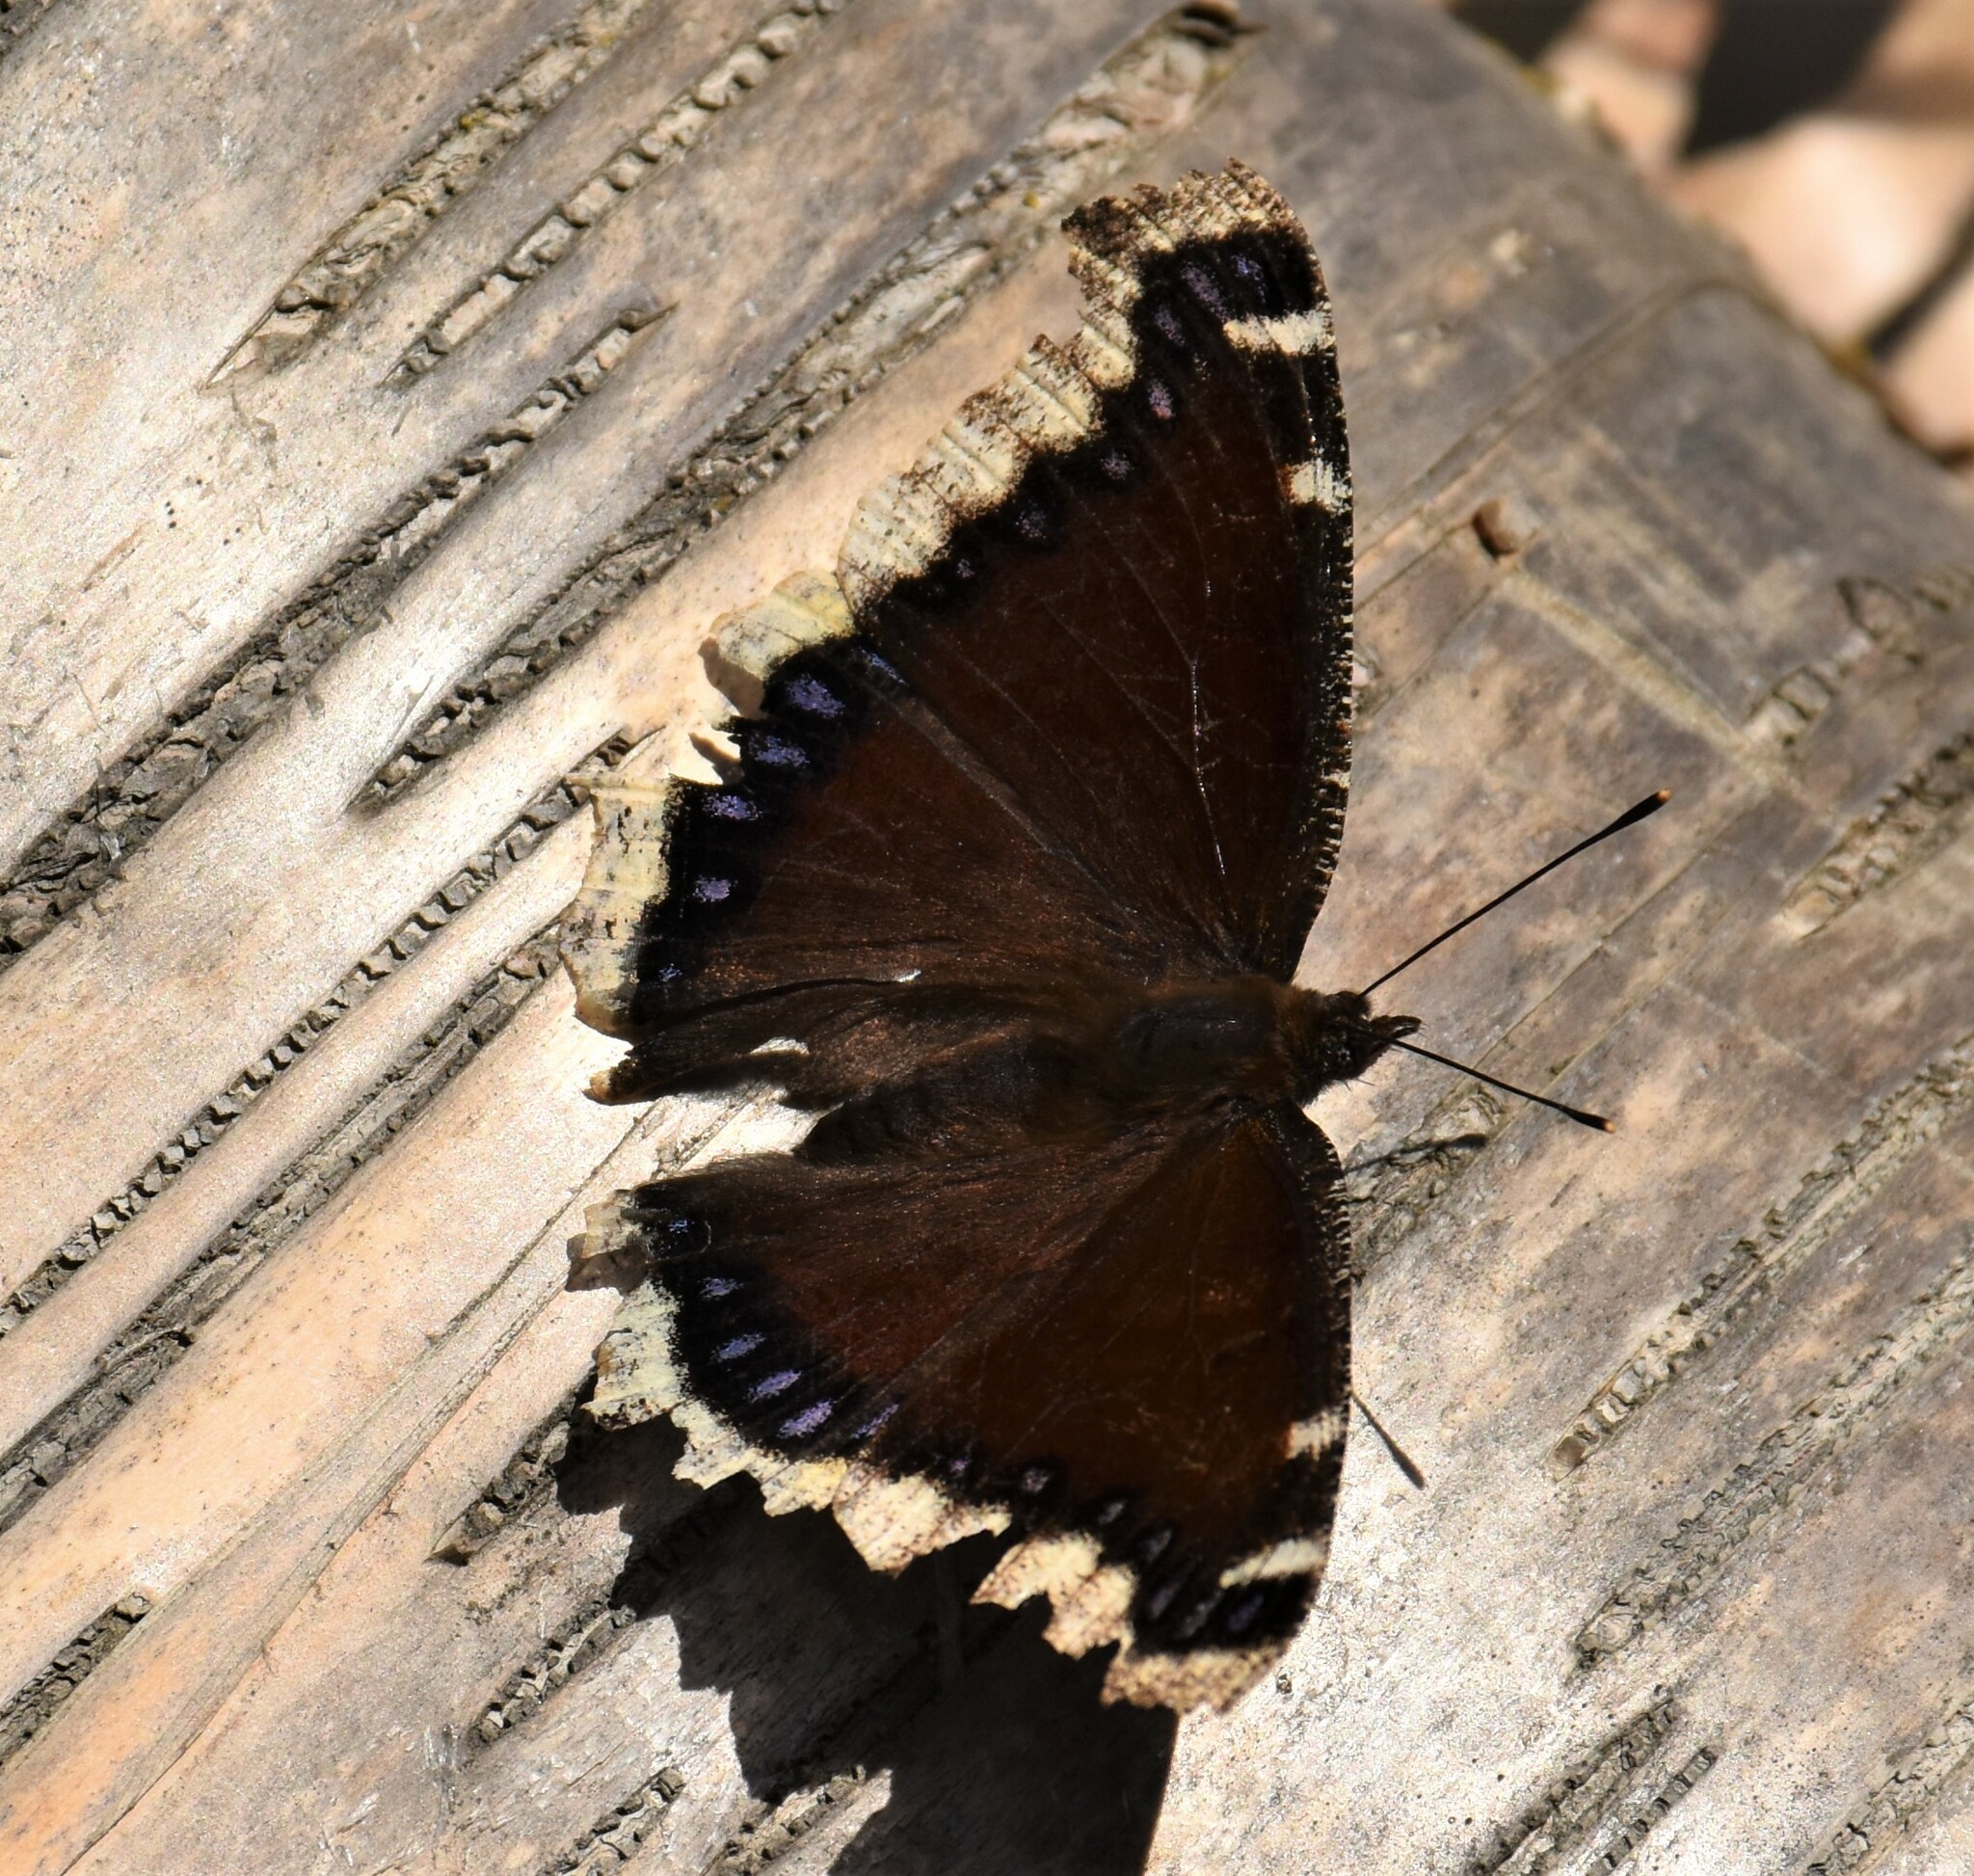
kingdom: Animalia
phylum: Arthropoda
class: Insecta
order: Lepidoptera
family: Nymphalidae
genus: Nymphalis
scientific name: Nymphalis antiopa
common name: Camberwell beauty
